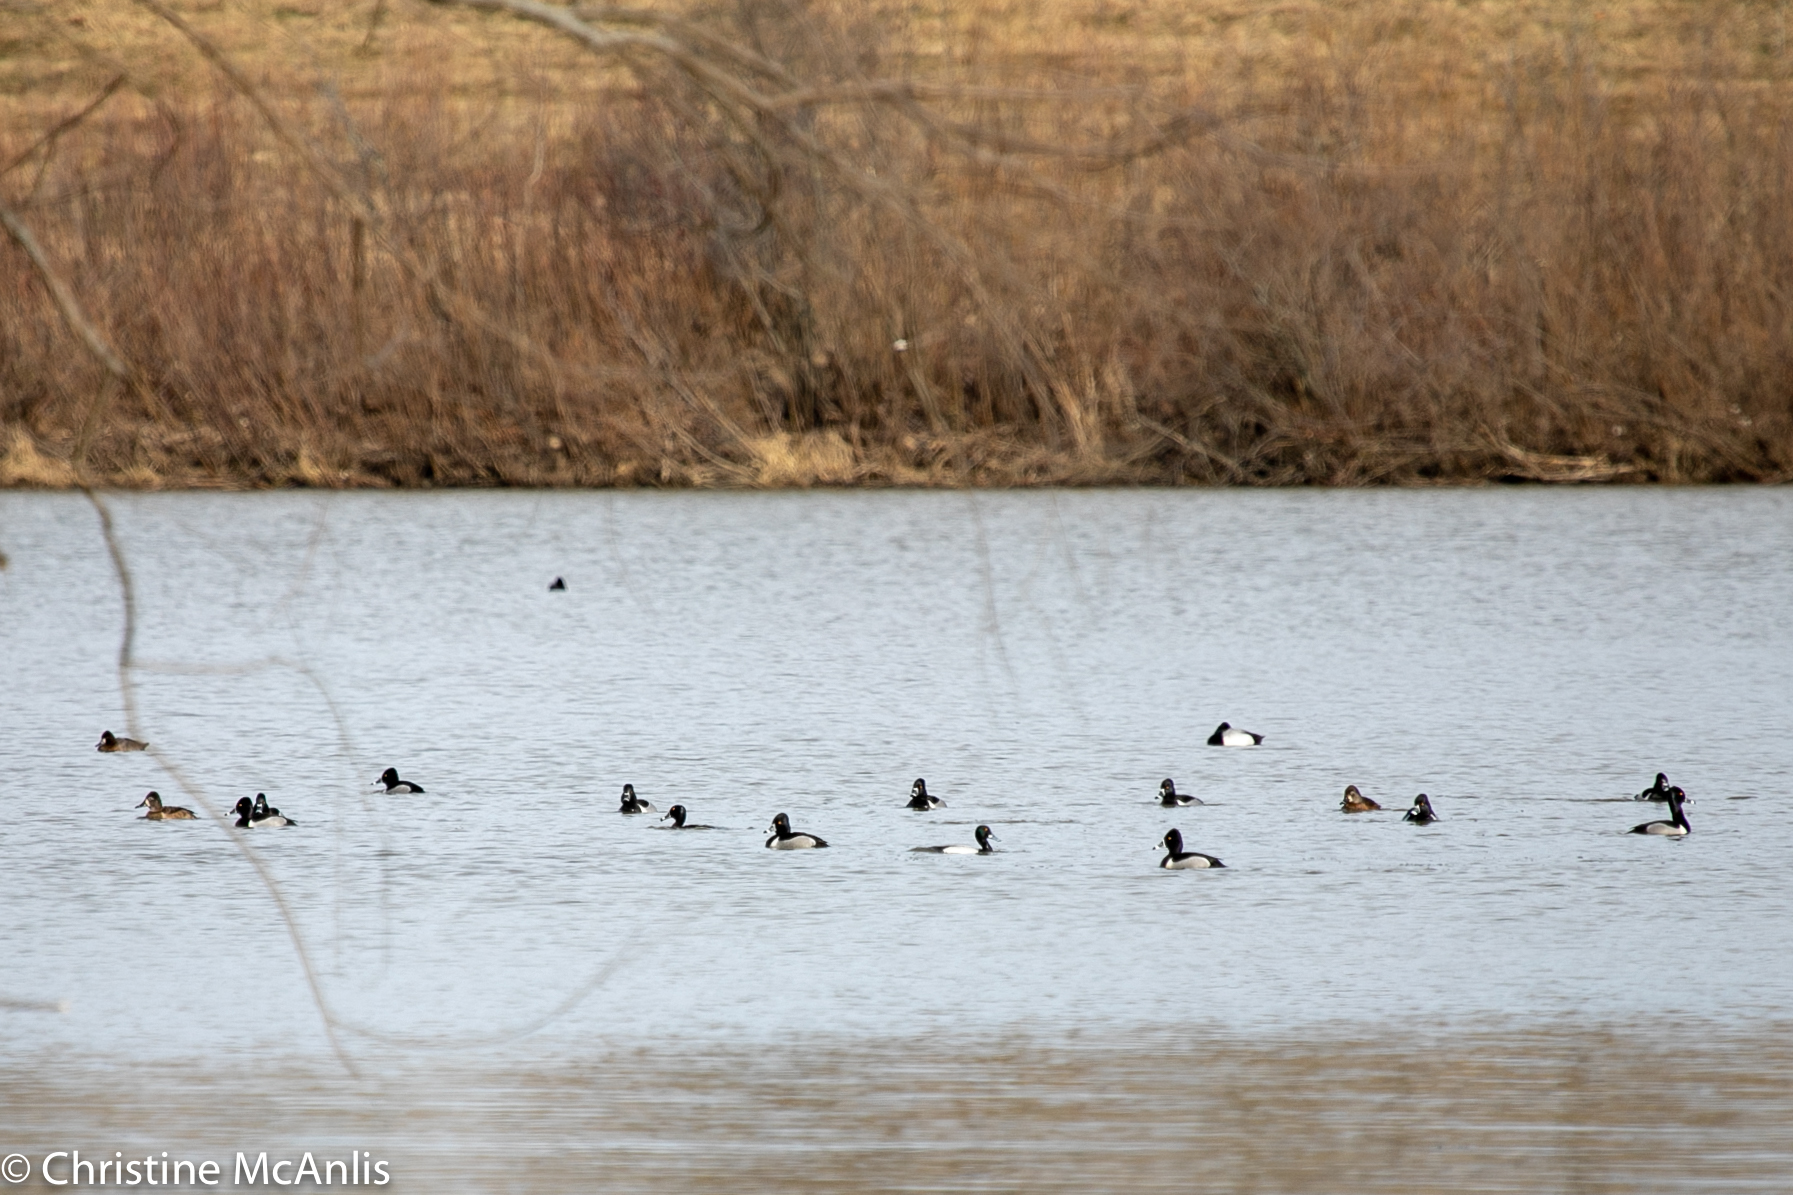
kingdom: Animalia
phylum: Chordata
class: Aves
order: Anseriformes
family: Anatidae
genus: Aythya
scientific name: Aythya collaris
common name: Ring-necked duck
